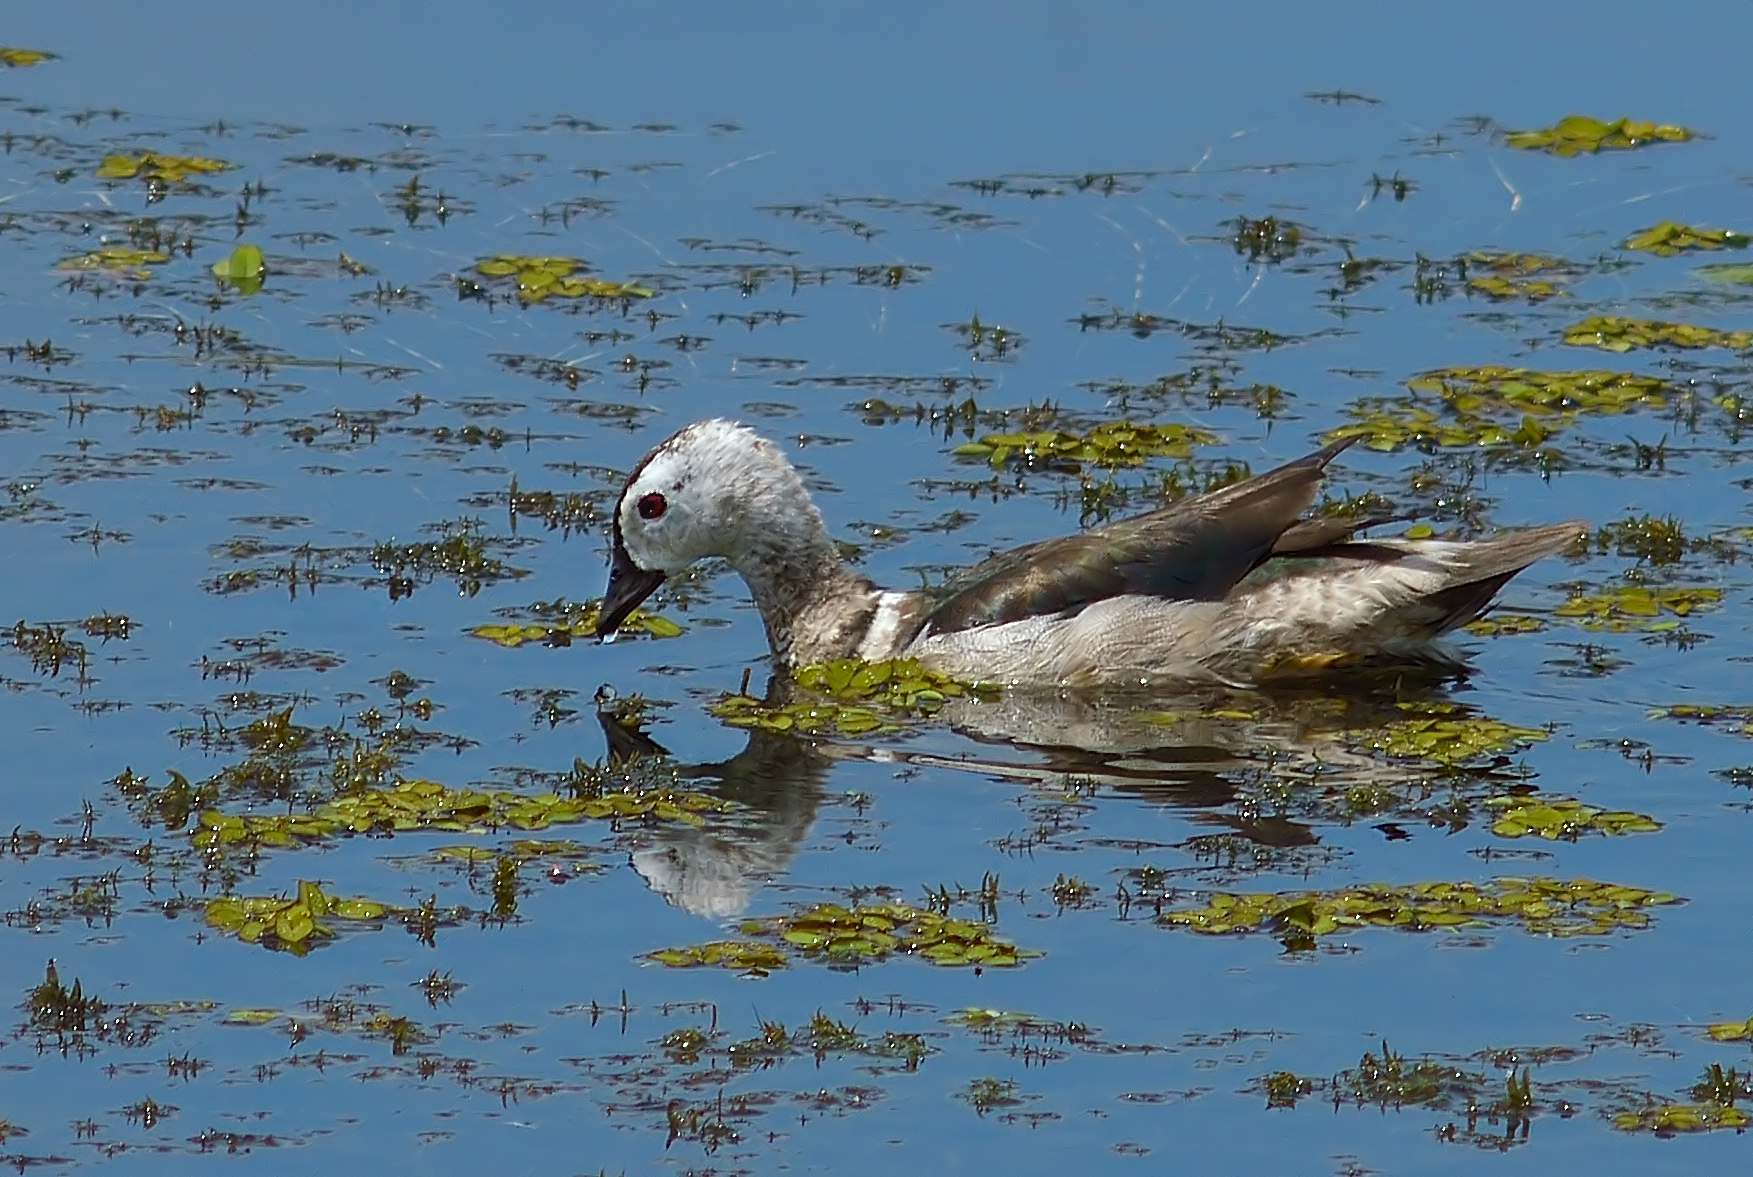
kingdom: Animalia
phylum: Chordata
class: Aves
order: Anseriformes
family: Anatidae
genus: Nettapus
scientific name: Nettapus coromandelianus
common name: Cotton pygmy-goose
